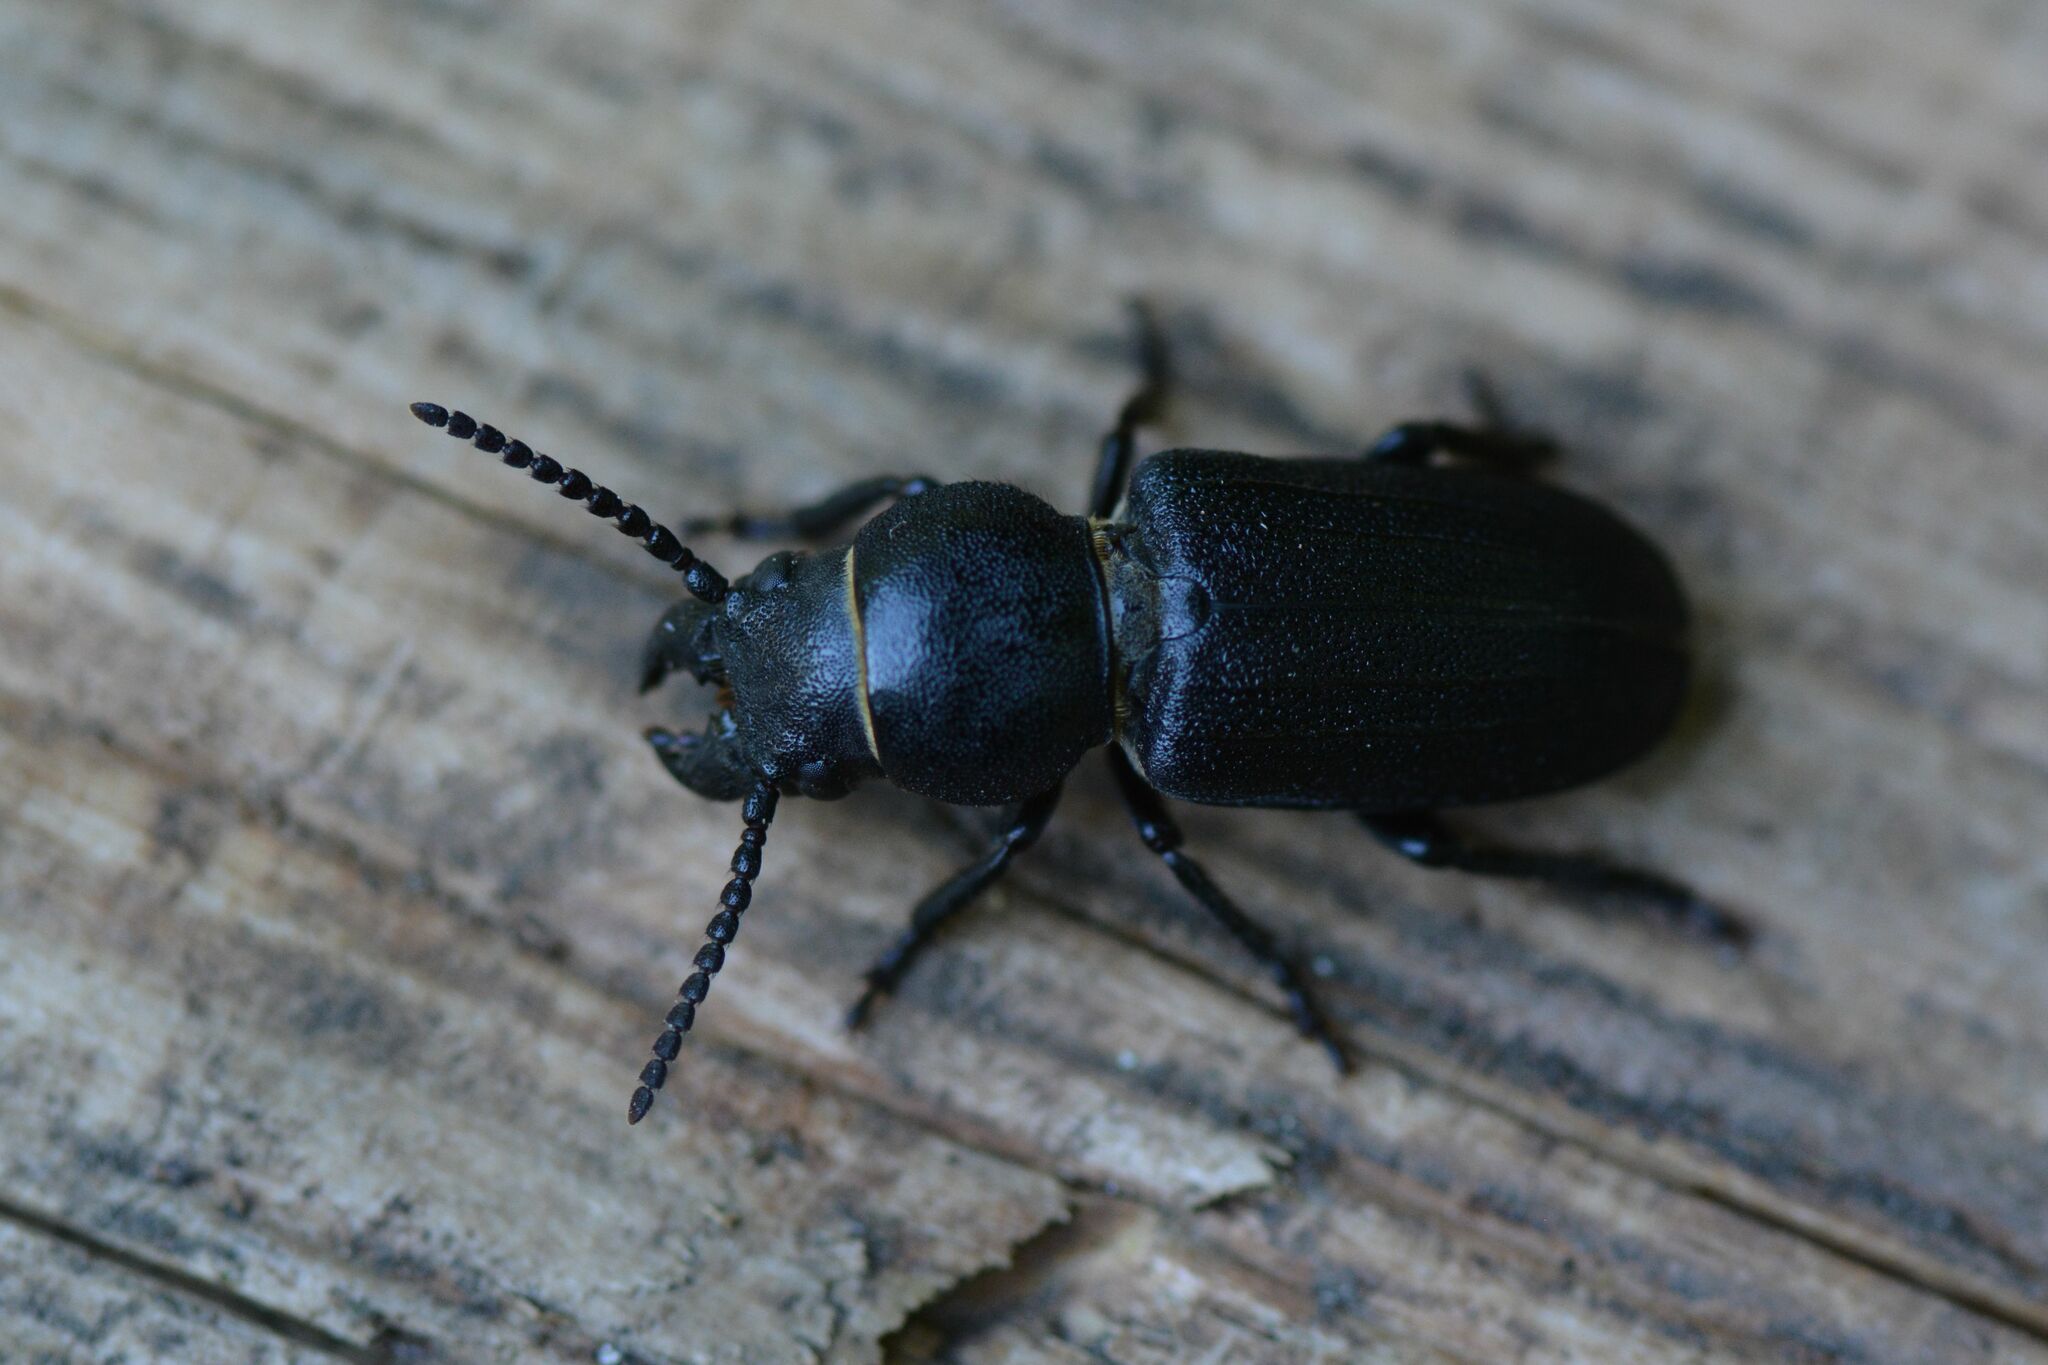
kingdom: Animalia
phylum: Arthropoda
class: Insecta
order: Coleoptera
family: Cerambycidae
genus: Spondylis
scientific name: Spondylis buprestoides
